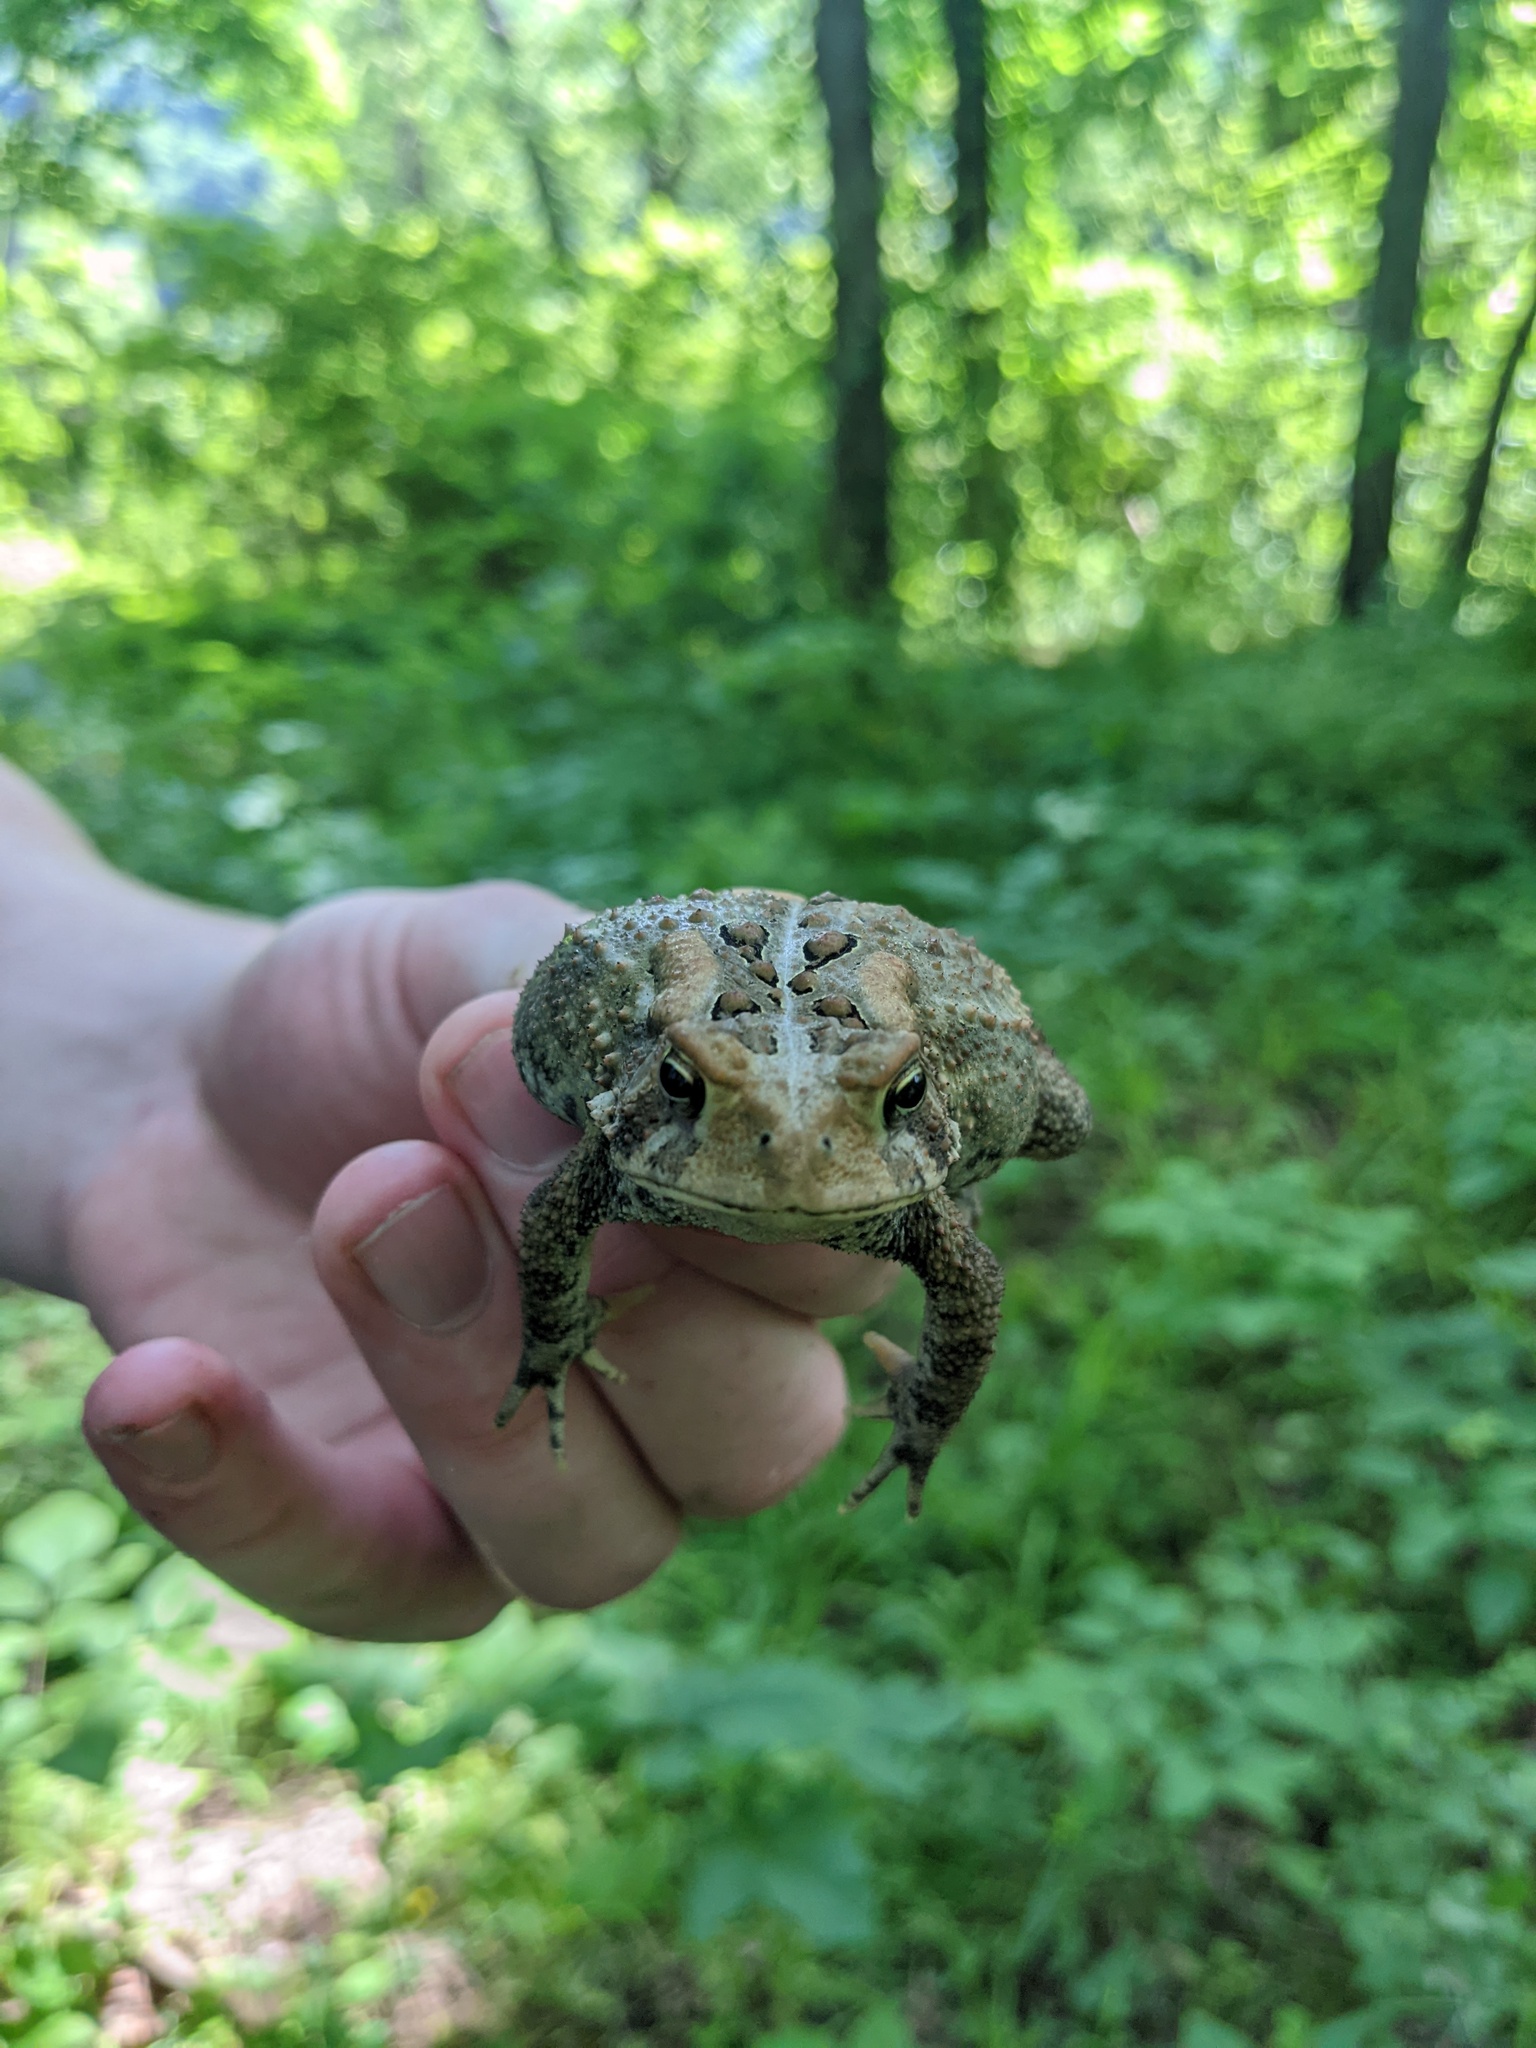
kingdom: Animalia
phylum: Chordata
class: Amphibia
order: Anura
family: Bufonidae
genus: Anaxyrus
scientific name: Anaxyrus americanus
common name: American toad
